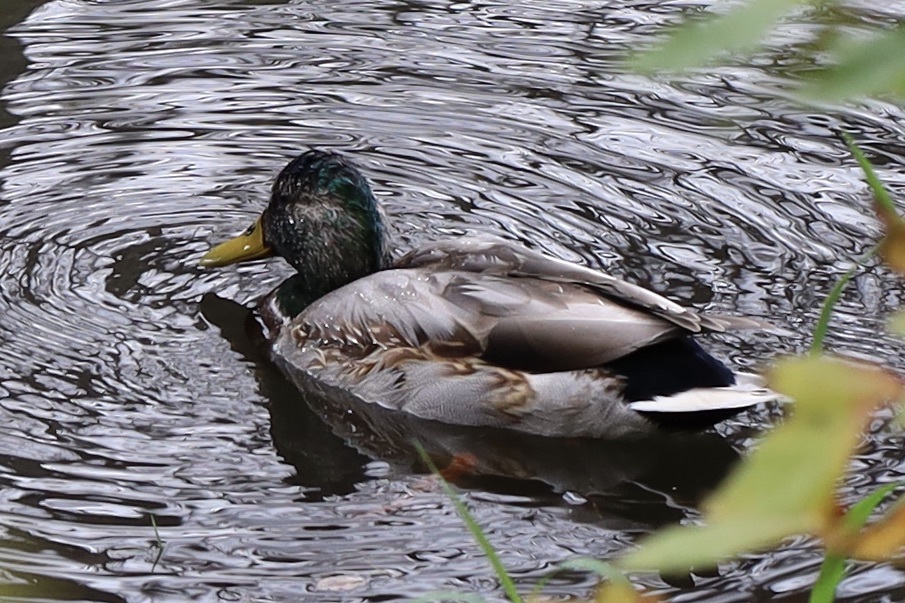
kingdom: Animalia
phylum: Chordata
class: Aves
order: Anseriformes
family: Anatidae
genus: Anas
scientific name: Anas platyrhynchos
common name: Mallard
